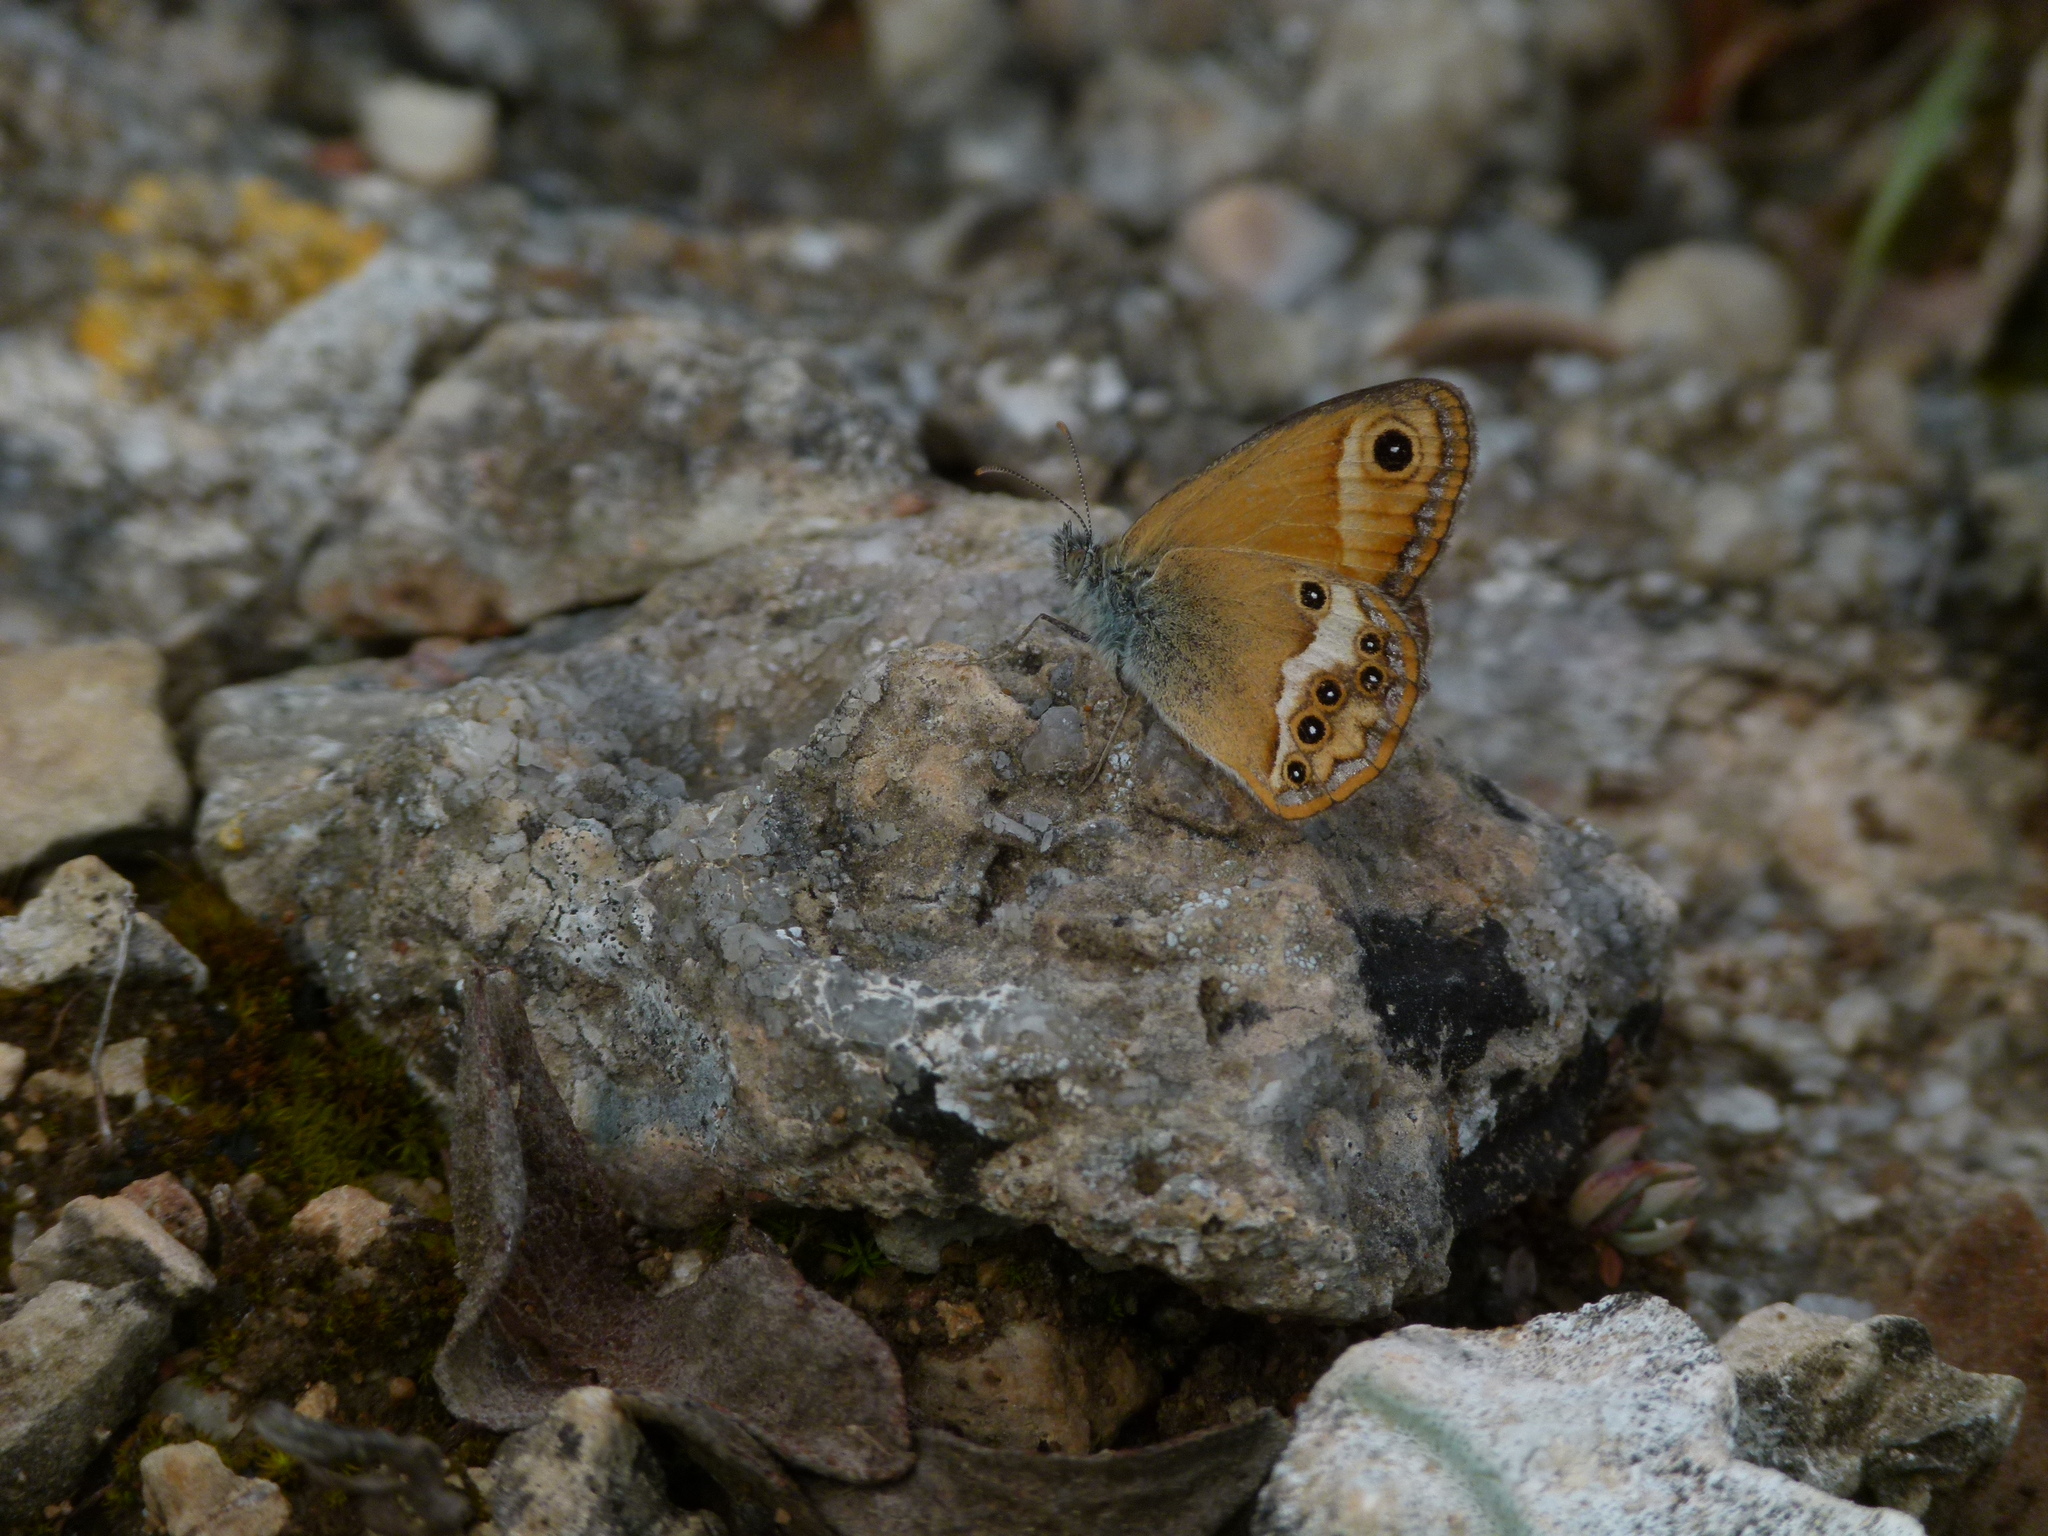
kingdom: Animalia
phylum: Arthropoda
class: Insecta
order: Lepidoptera
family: Nymphalidae
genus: Coenonympha
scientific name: Coenonympha dorus
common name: Dusky heath
